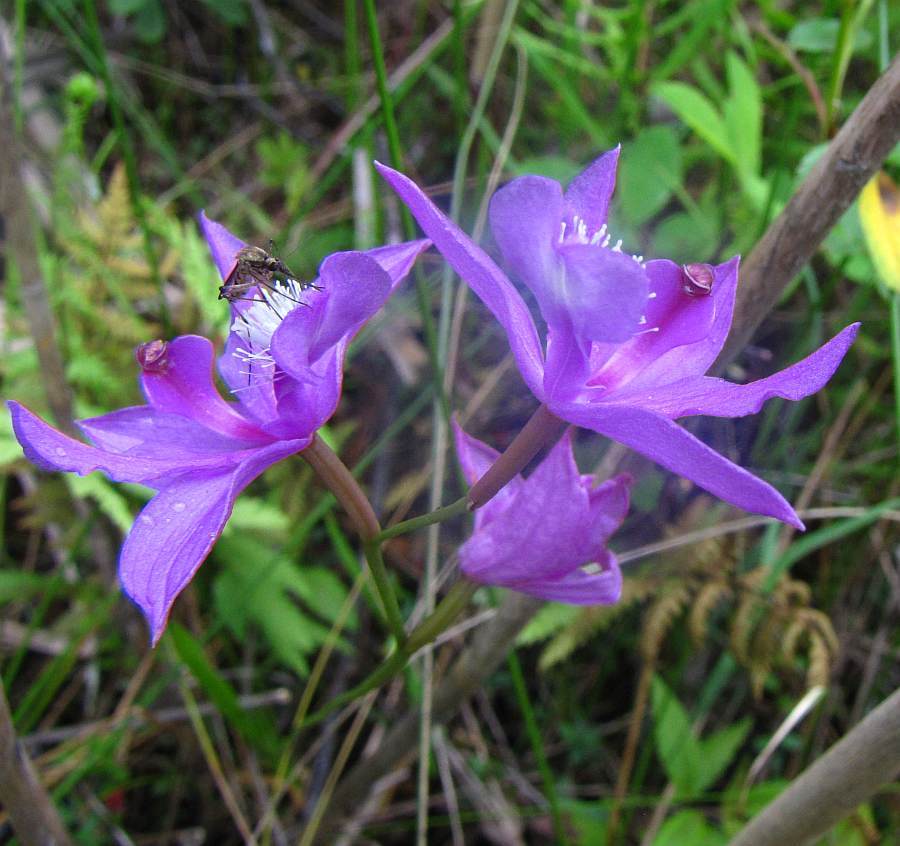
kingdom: Plantae
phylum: Tracheophyta
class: Liliopsida
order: Asparagales
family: Orchidaceae
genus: Calopogon
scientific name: Calopogon tuberosus
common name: Grass-pink
